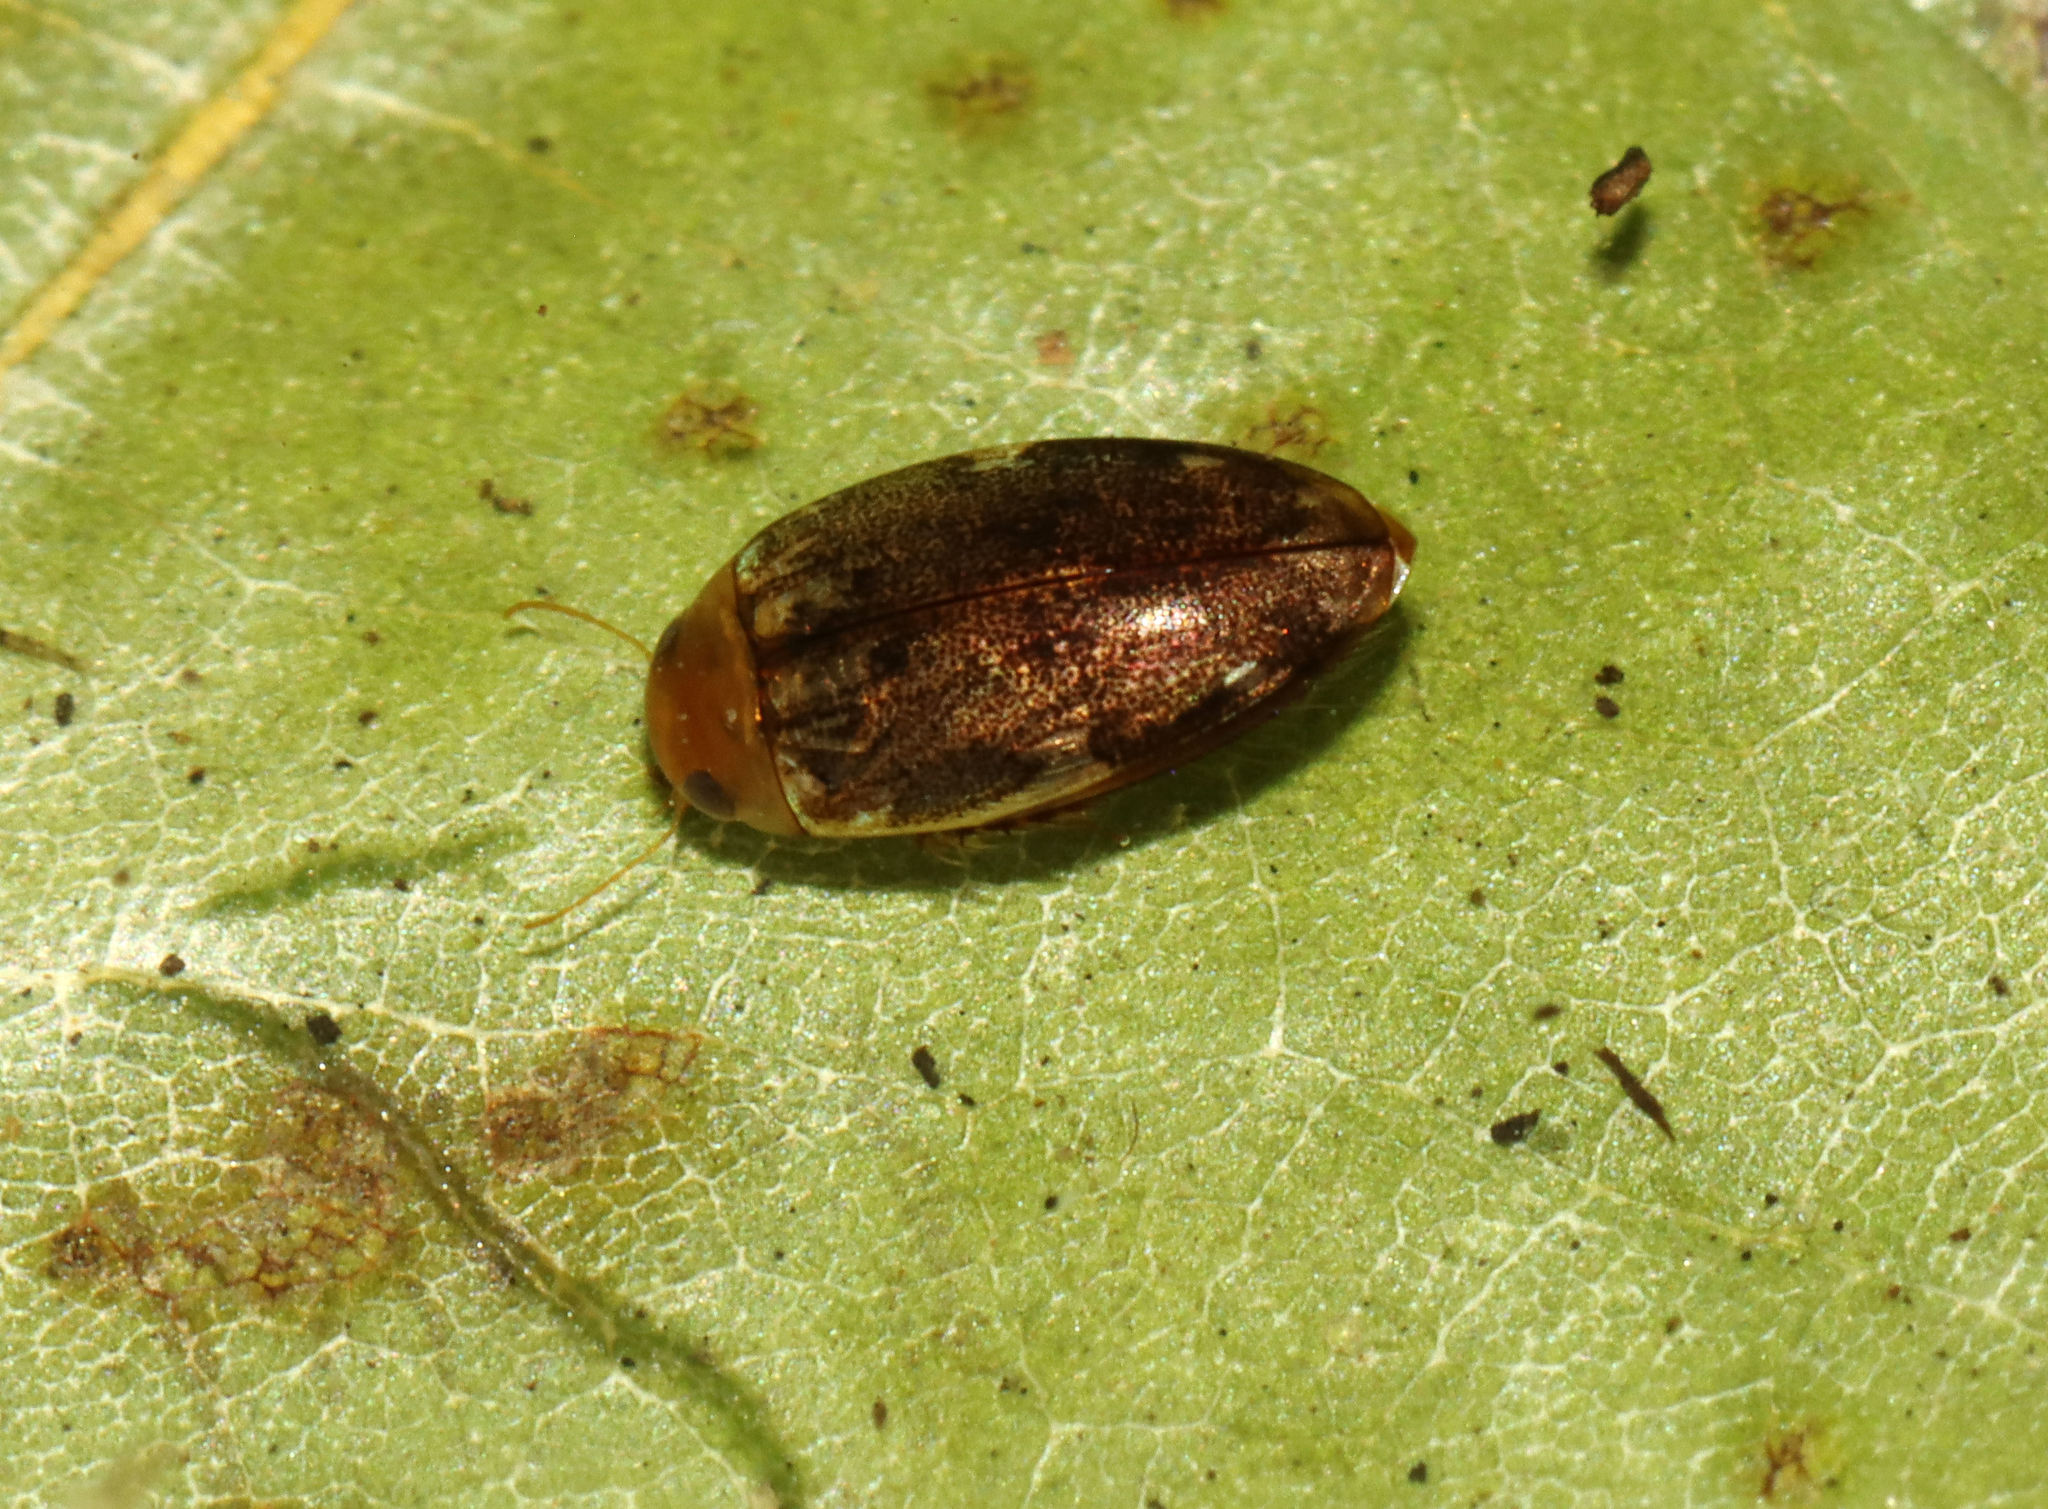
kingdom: Animalia
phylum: Arthropoda
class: Insecta
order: Coleoptera
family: Dytiscidae
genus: Laccophilus
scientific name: Laccophilus proximus
